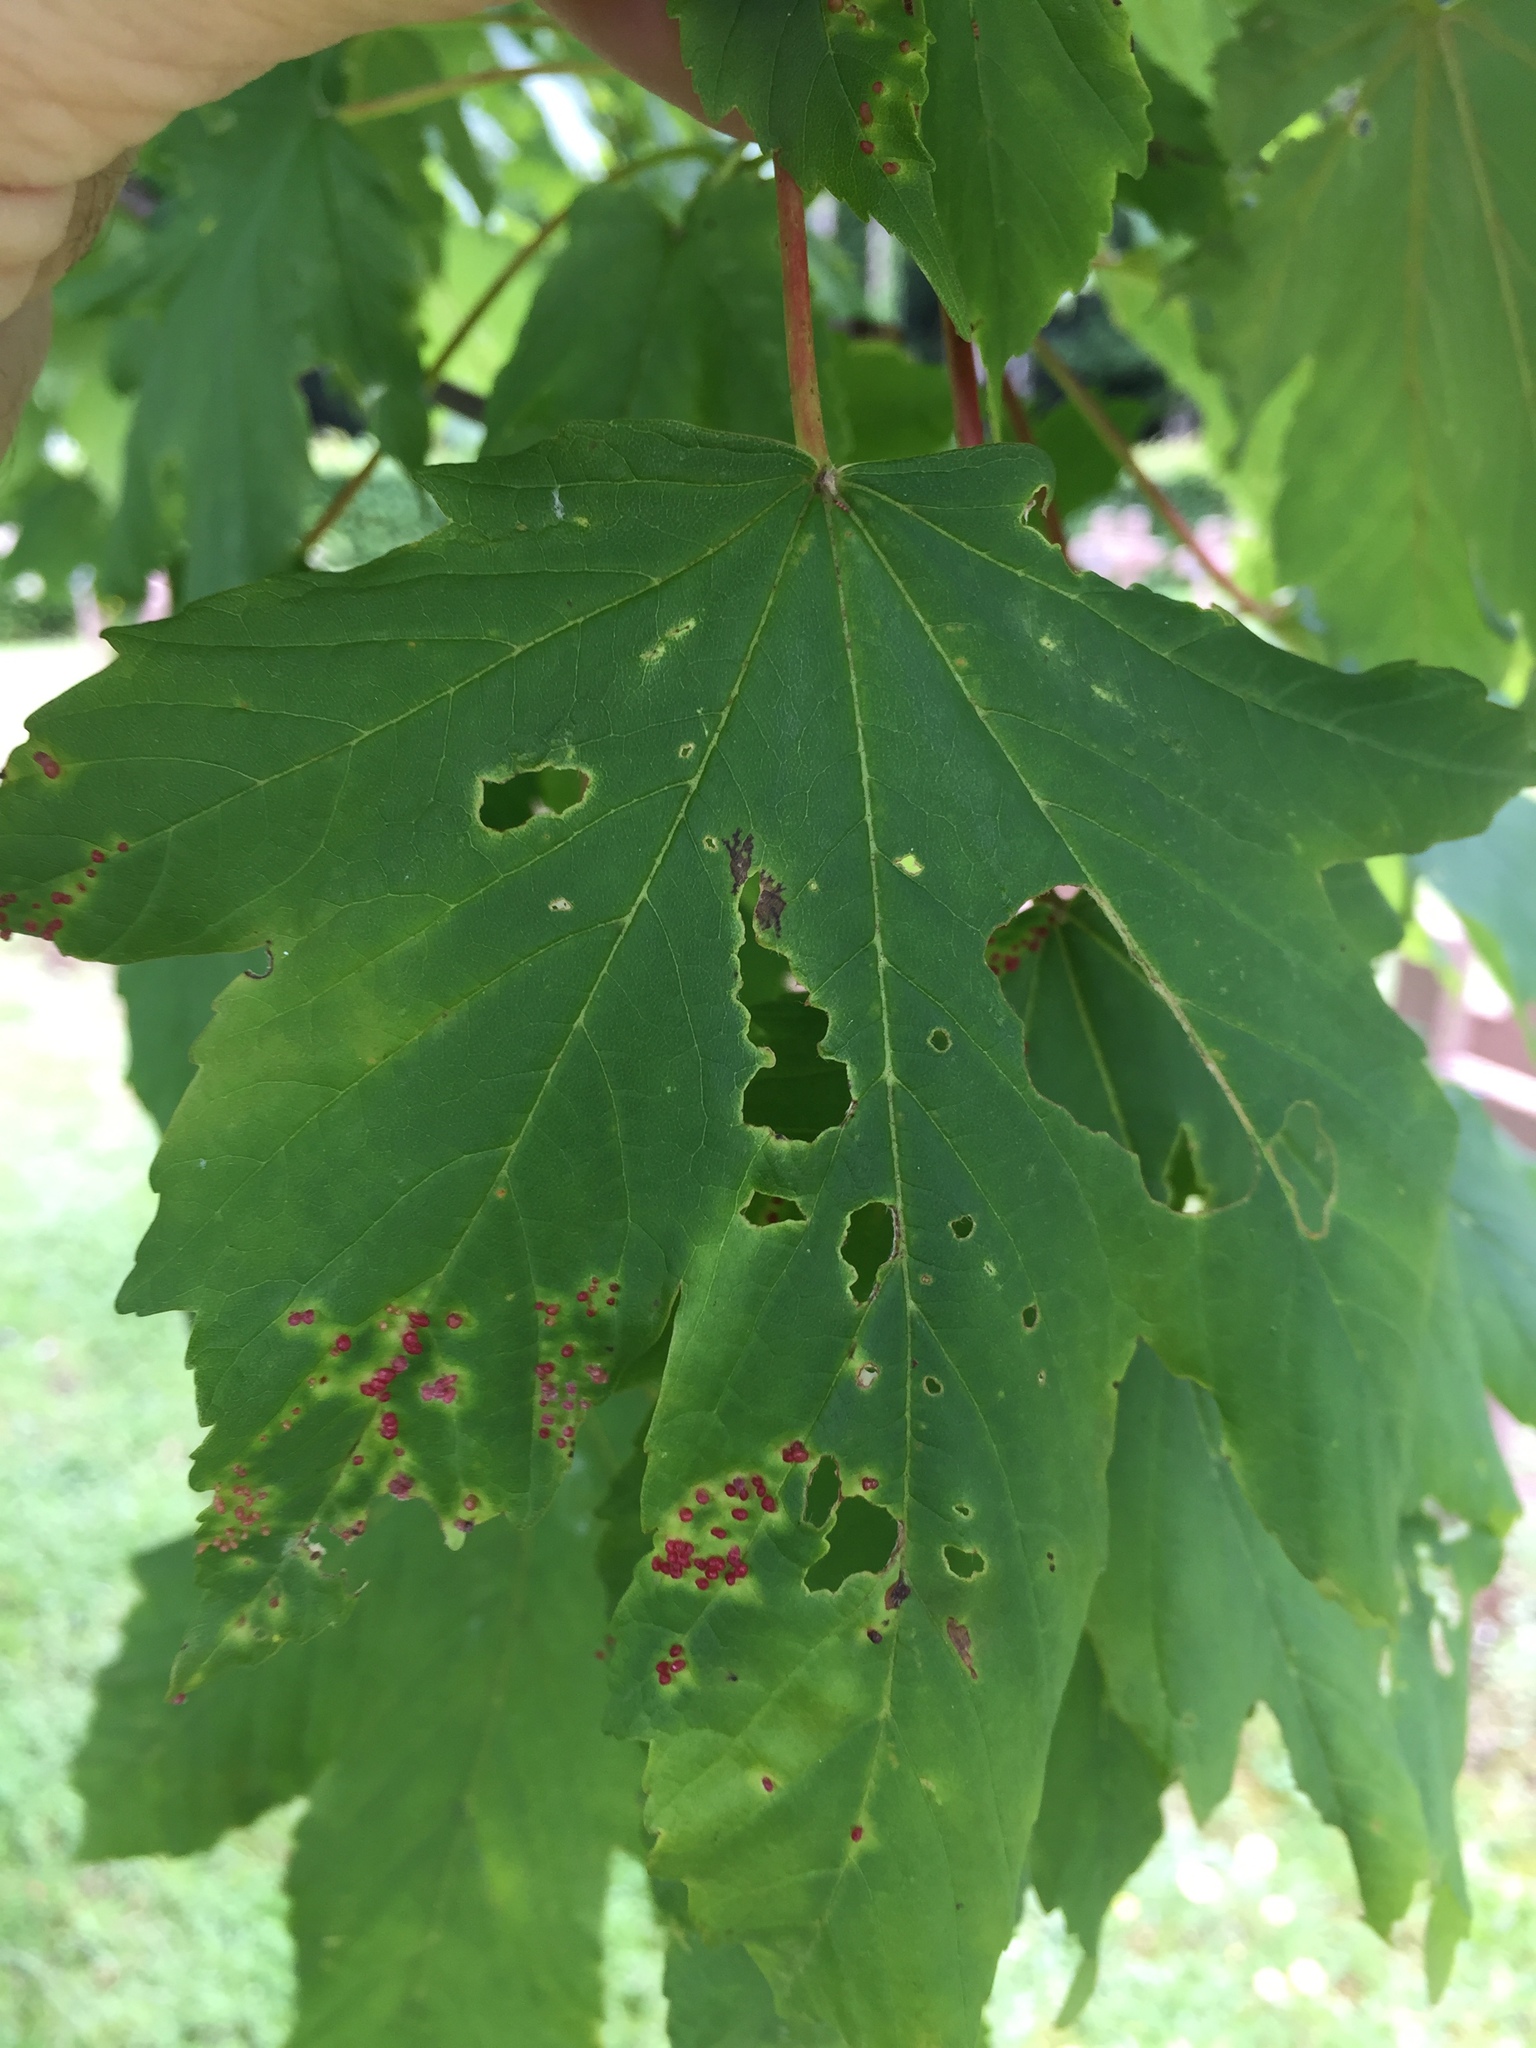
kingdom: Animalia
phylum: Arthropoda
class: Arachnida
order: Trombidiformes
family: Eriophyidae
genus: Aceria
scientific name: Aceria cephaloneus
